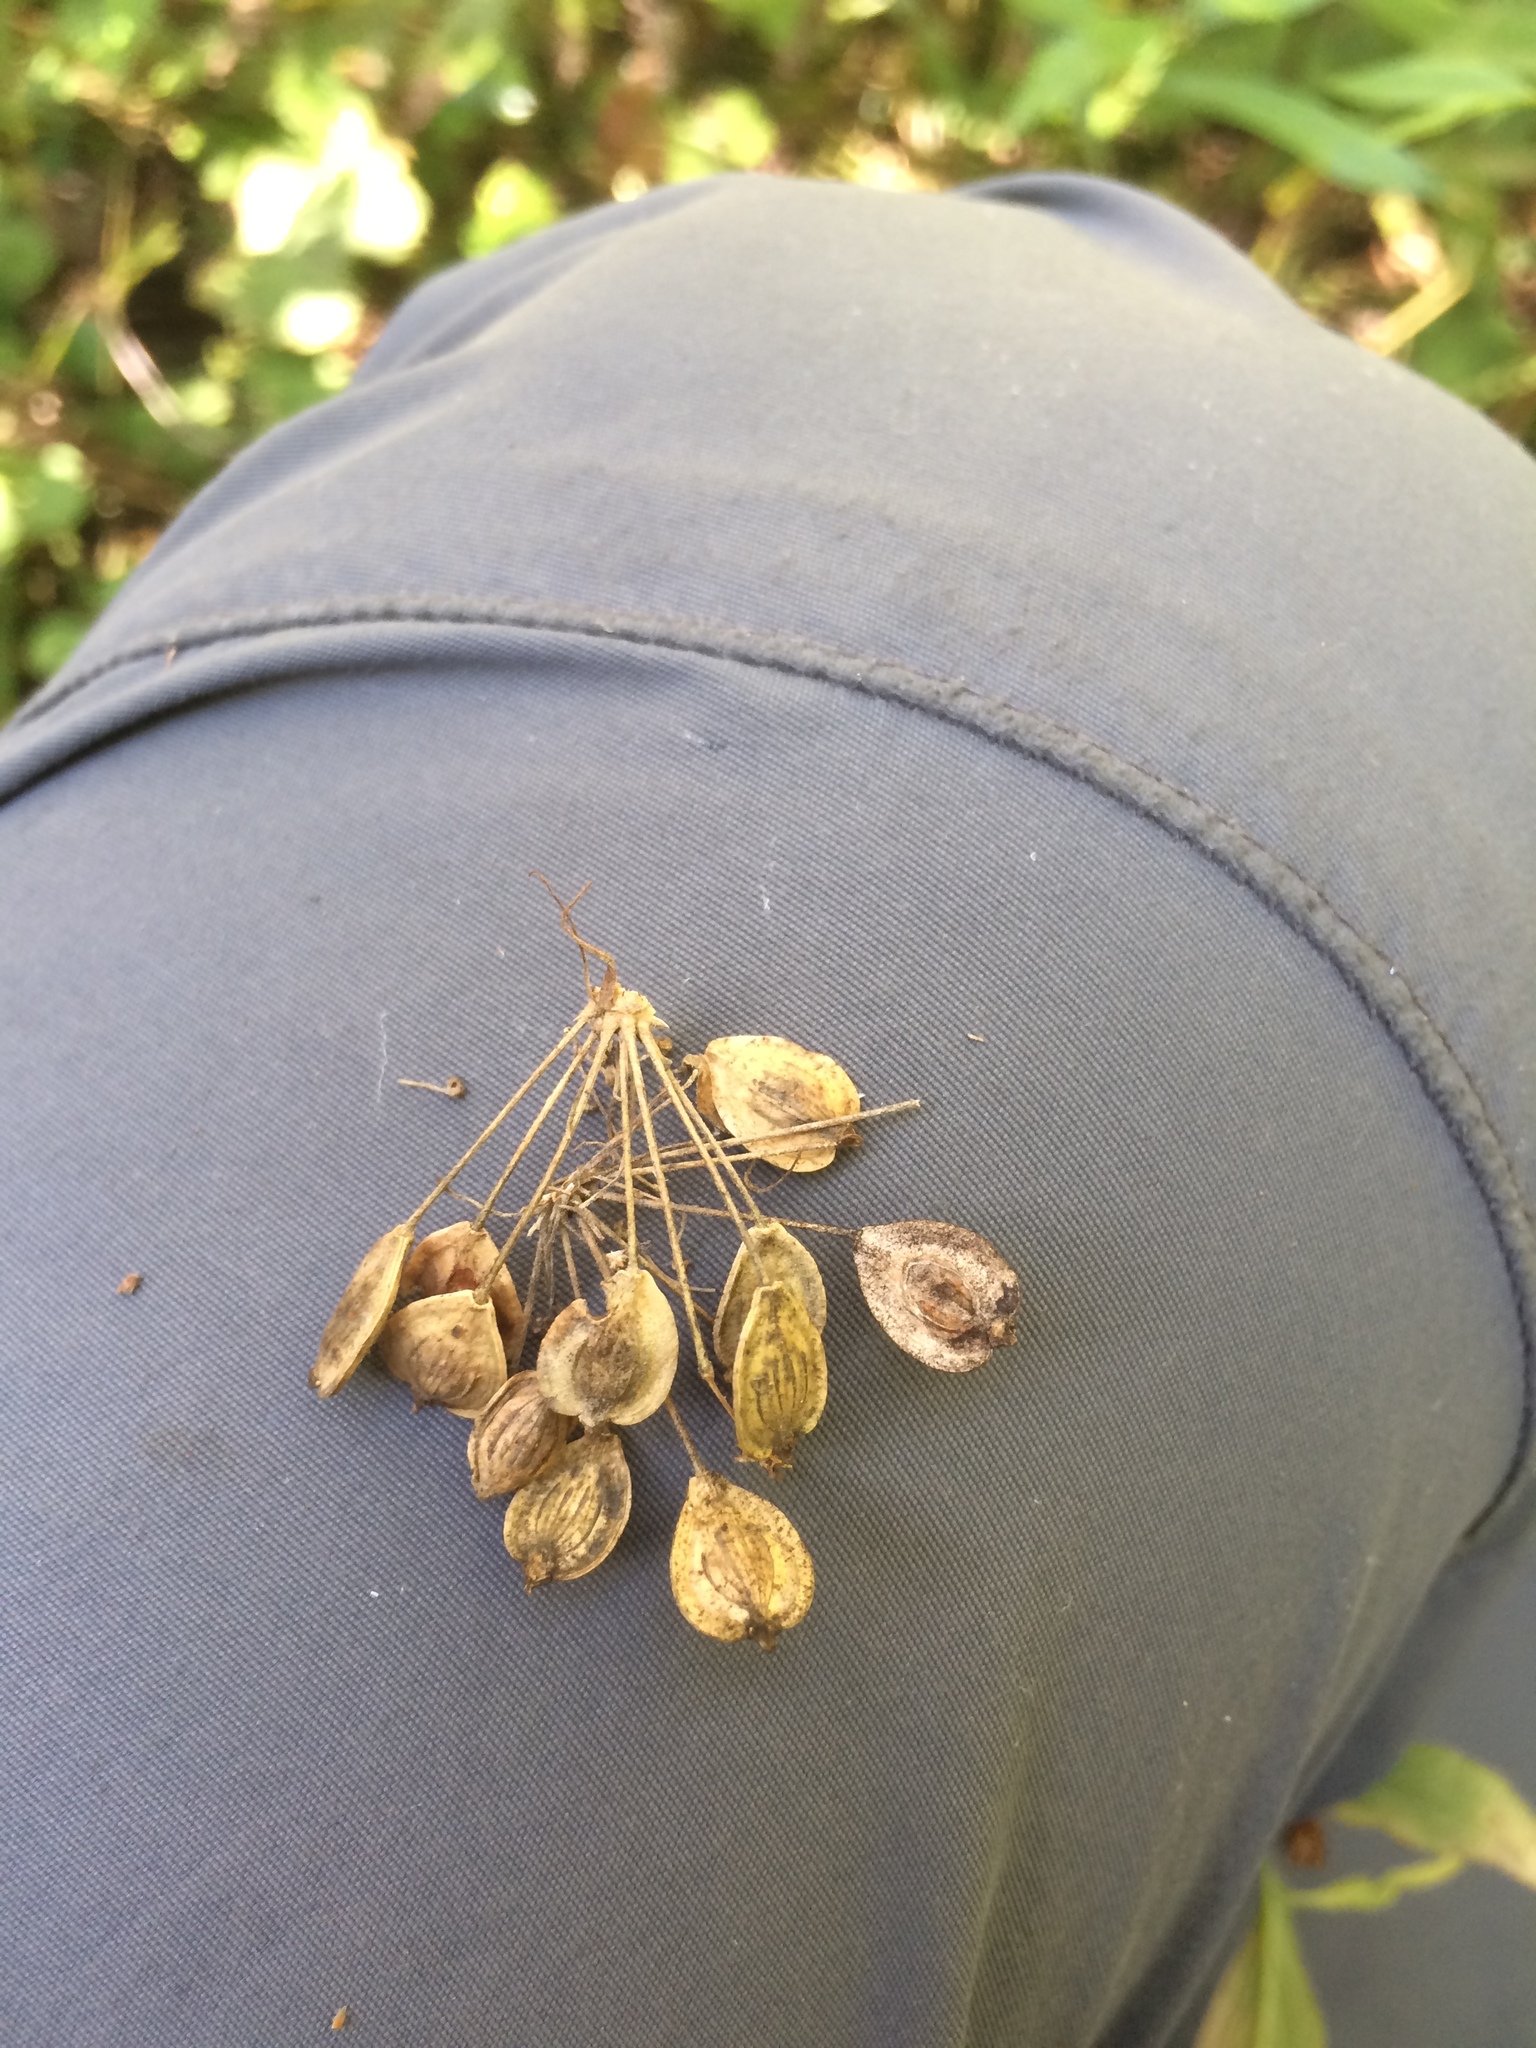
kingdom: Plantae
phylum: Tracheophyta
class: Magnoliopsida
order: Apiales
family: Apiaceae
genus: Heracleum
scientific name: Heracleum maximum
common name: American cow parsnip
